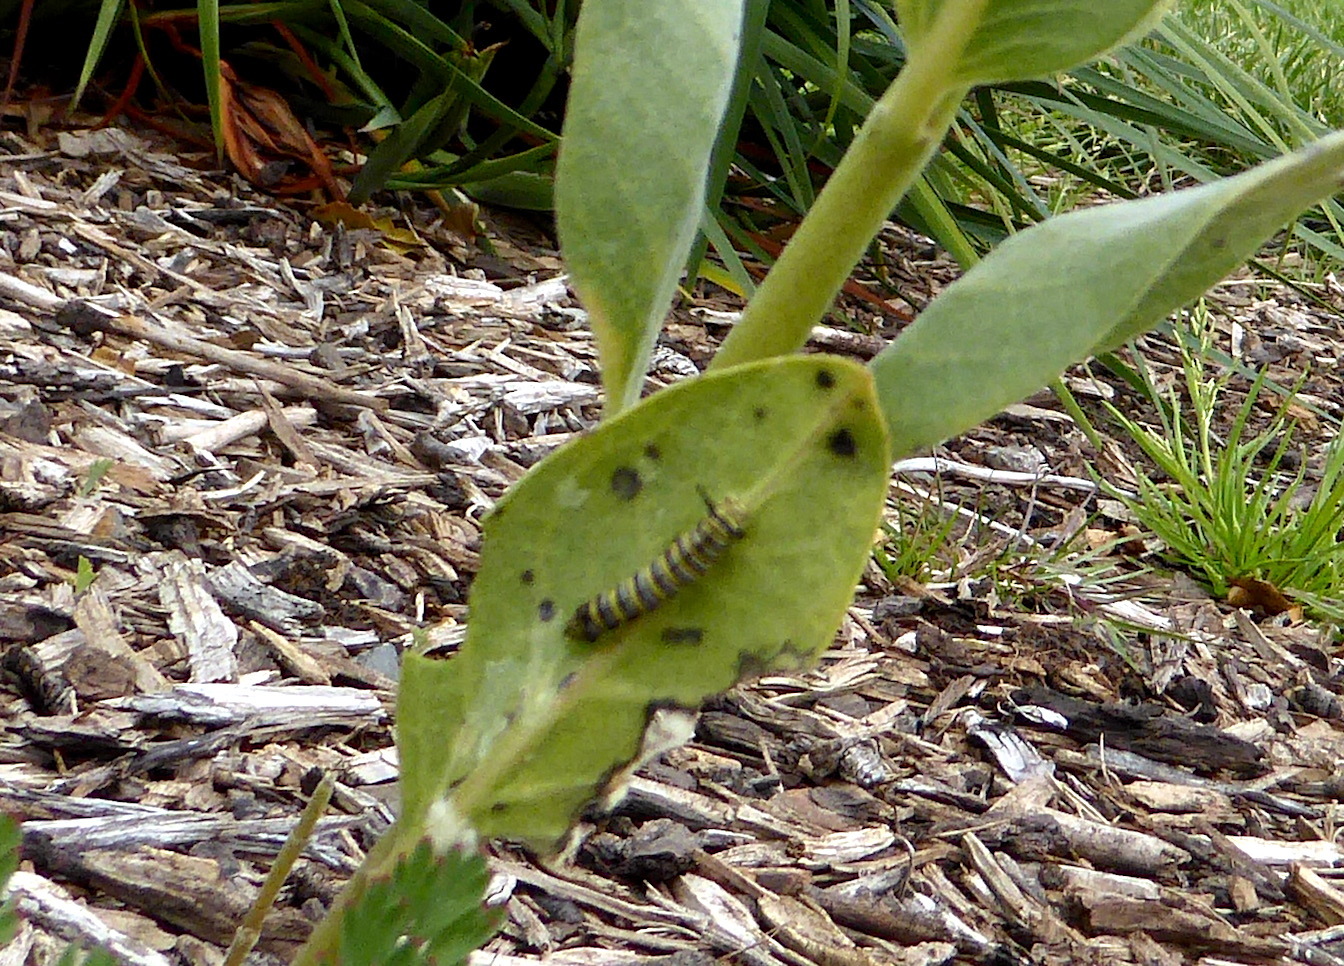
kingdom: Animalia
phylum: Arthropoda
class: Insecta
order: Lepidoptera
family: Nymphalidae
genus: Danaus
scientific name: Danaus plexippus
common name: Monarch
